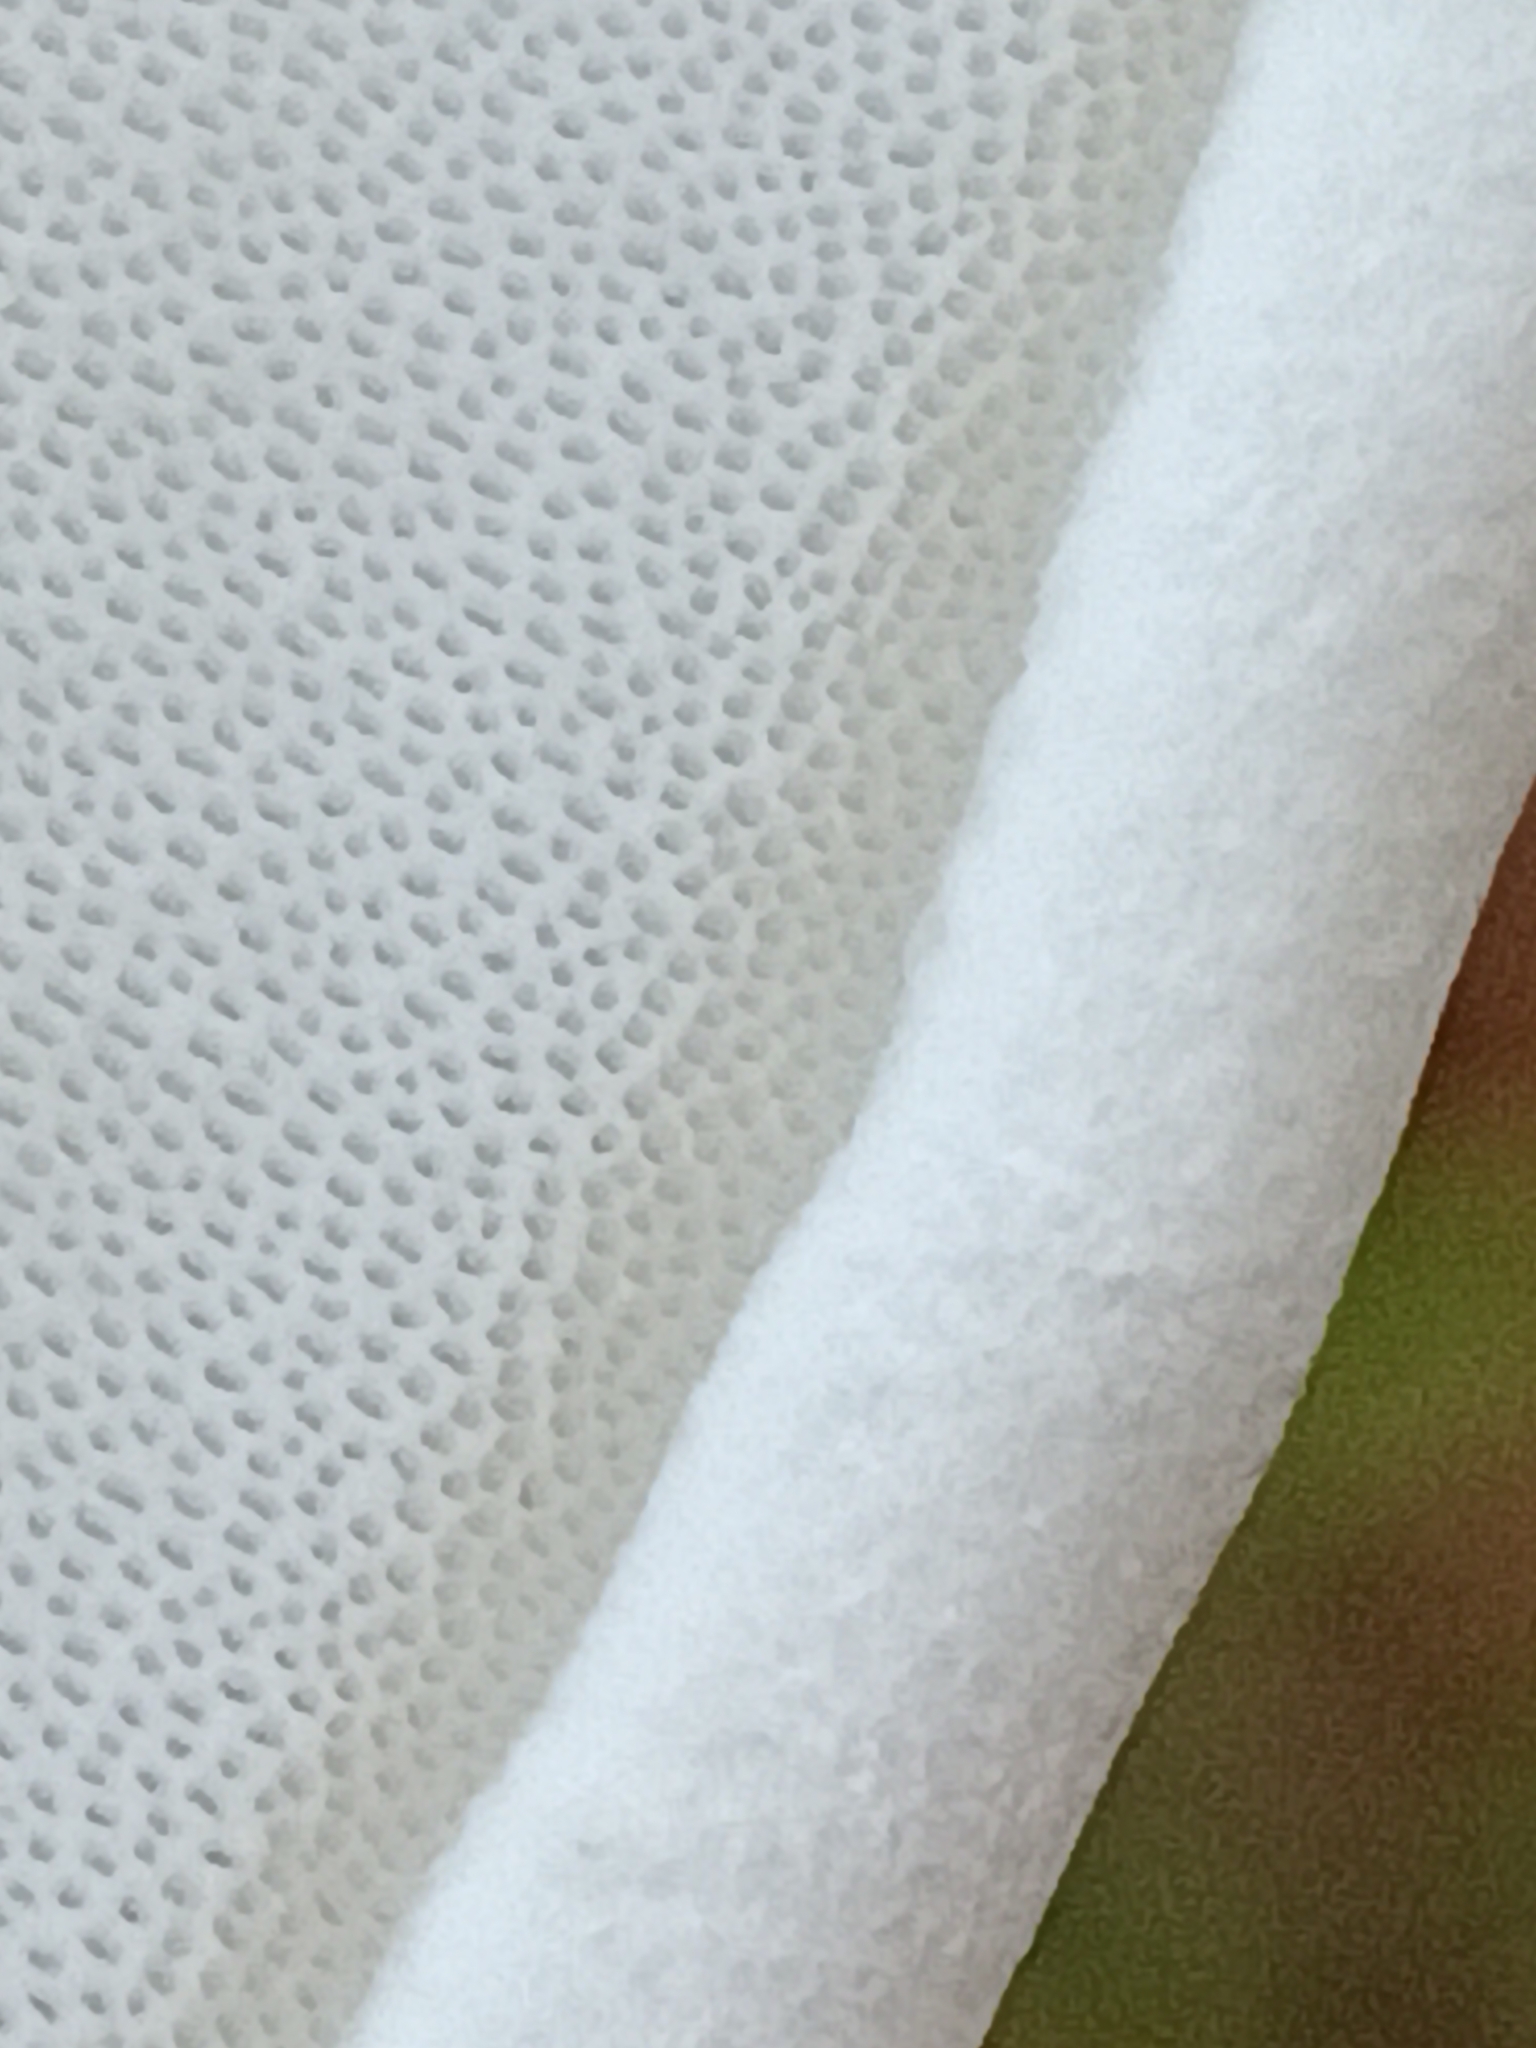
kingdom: Fungi
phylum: Basidiomycota
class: Agaricomycetes
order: Polyporales
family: Fomitopsidaceae
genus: Fomitopsis
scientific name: Fomitopsis betulina
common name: Birch polypore
